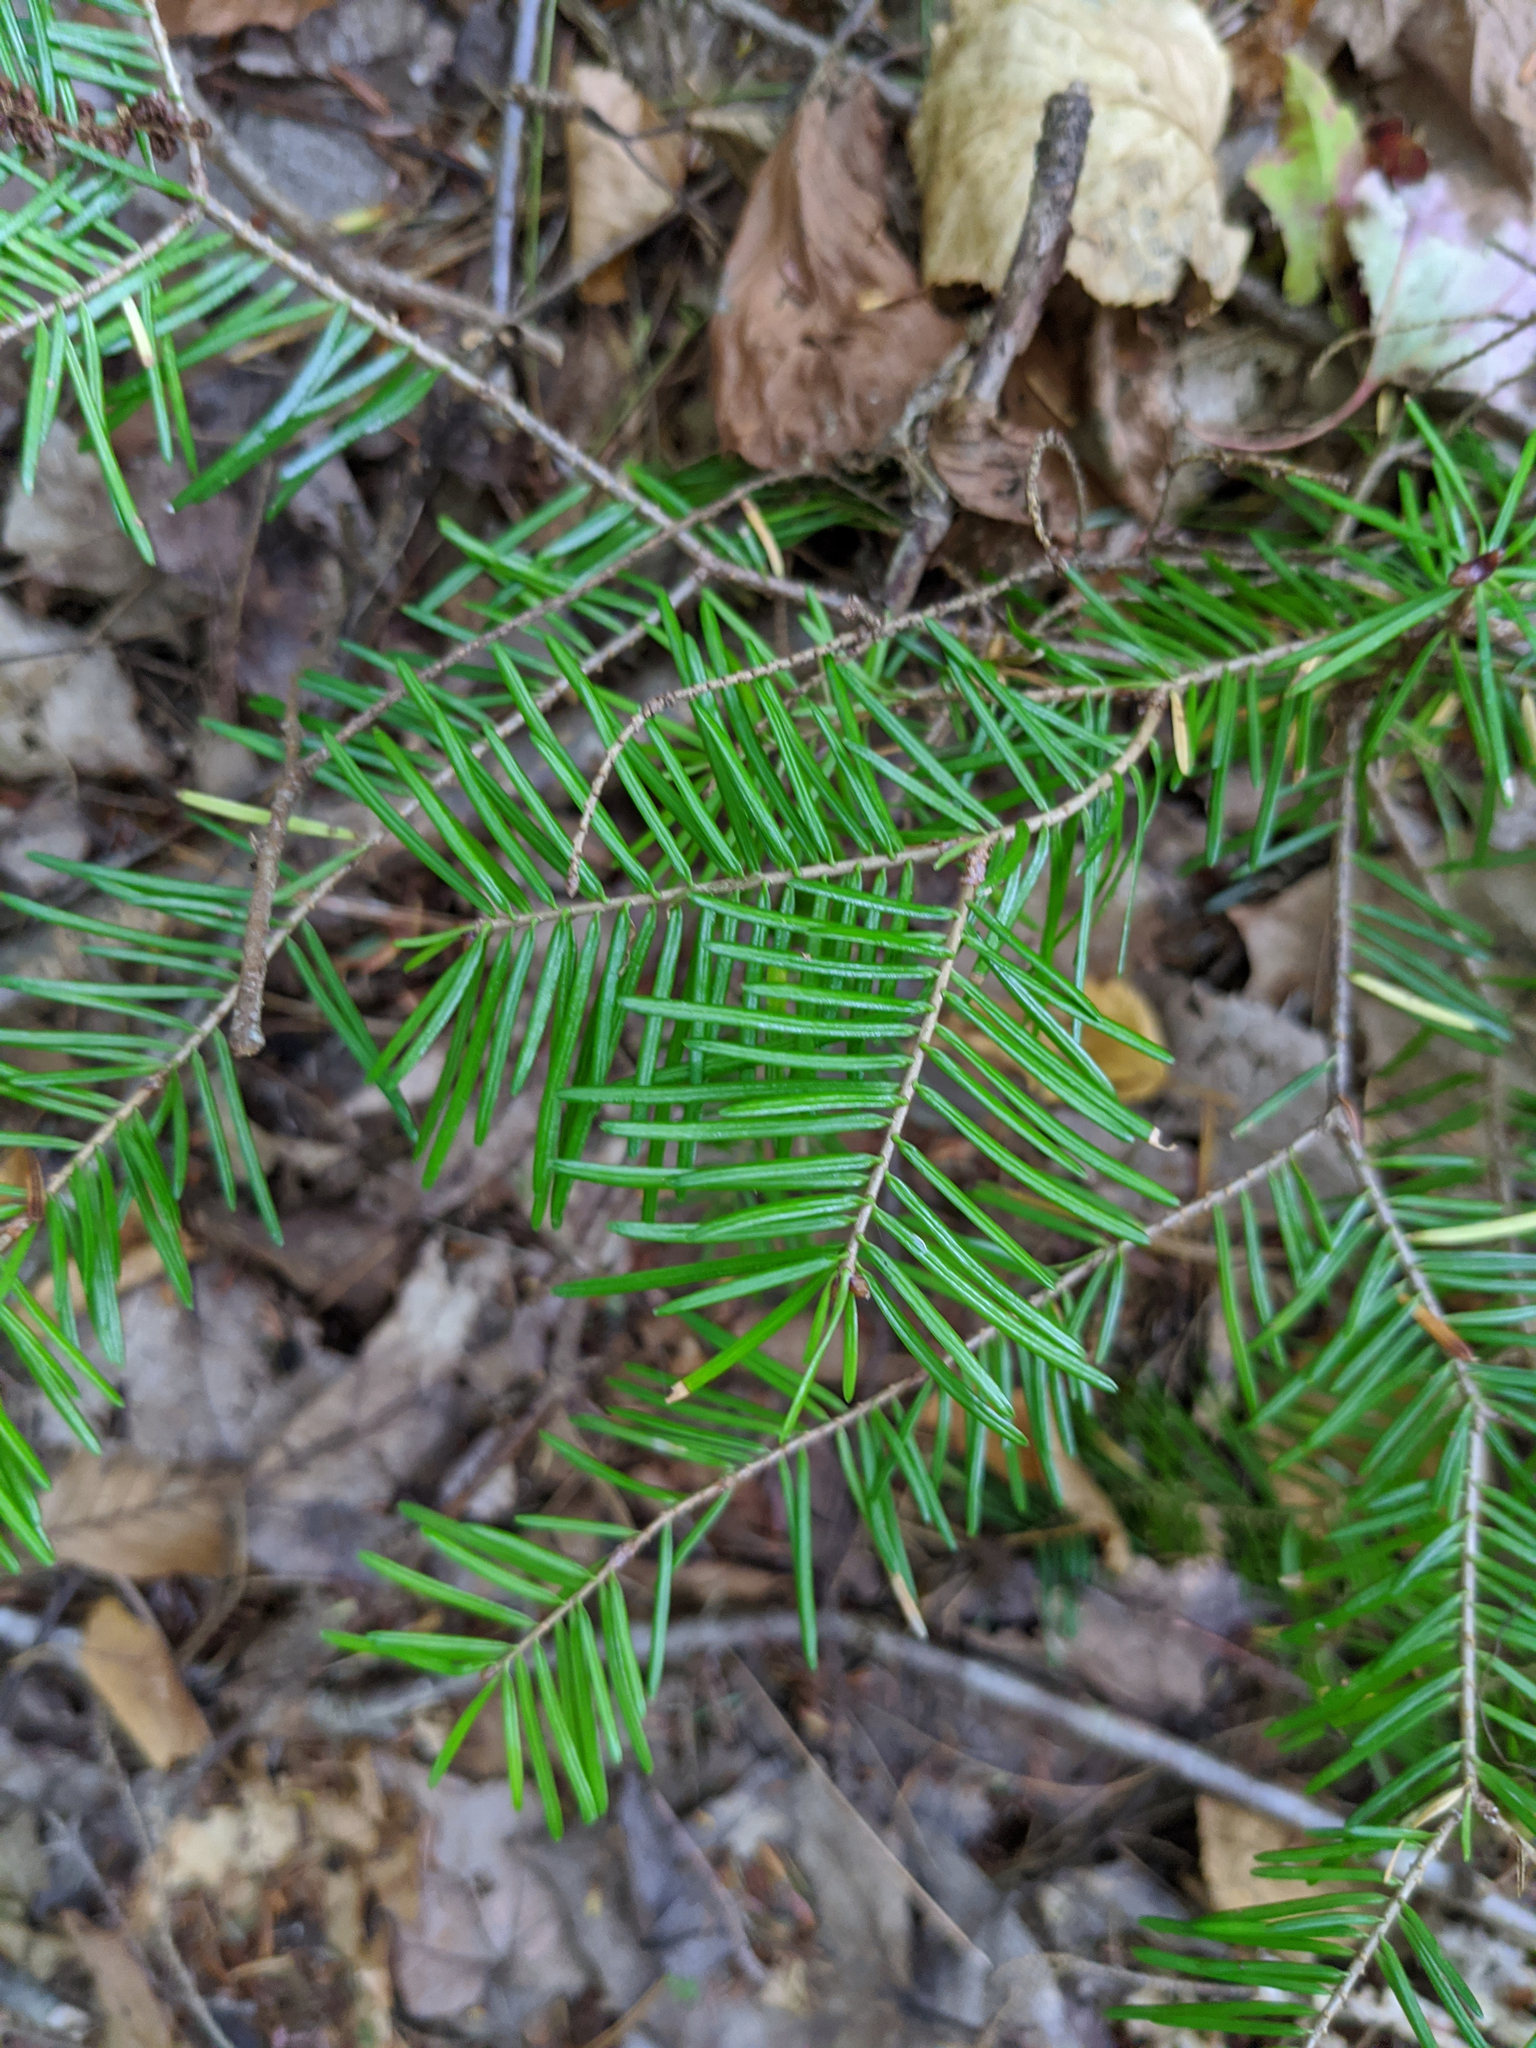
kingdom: Plantae
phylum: Tracheophyta
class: Pinopsida
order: Pinales
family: Pinaceae
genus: Abies
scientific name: Abies balsamea
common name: Balsam fir
